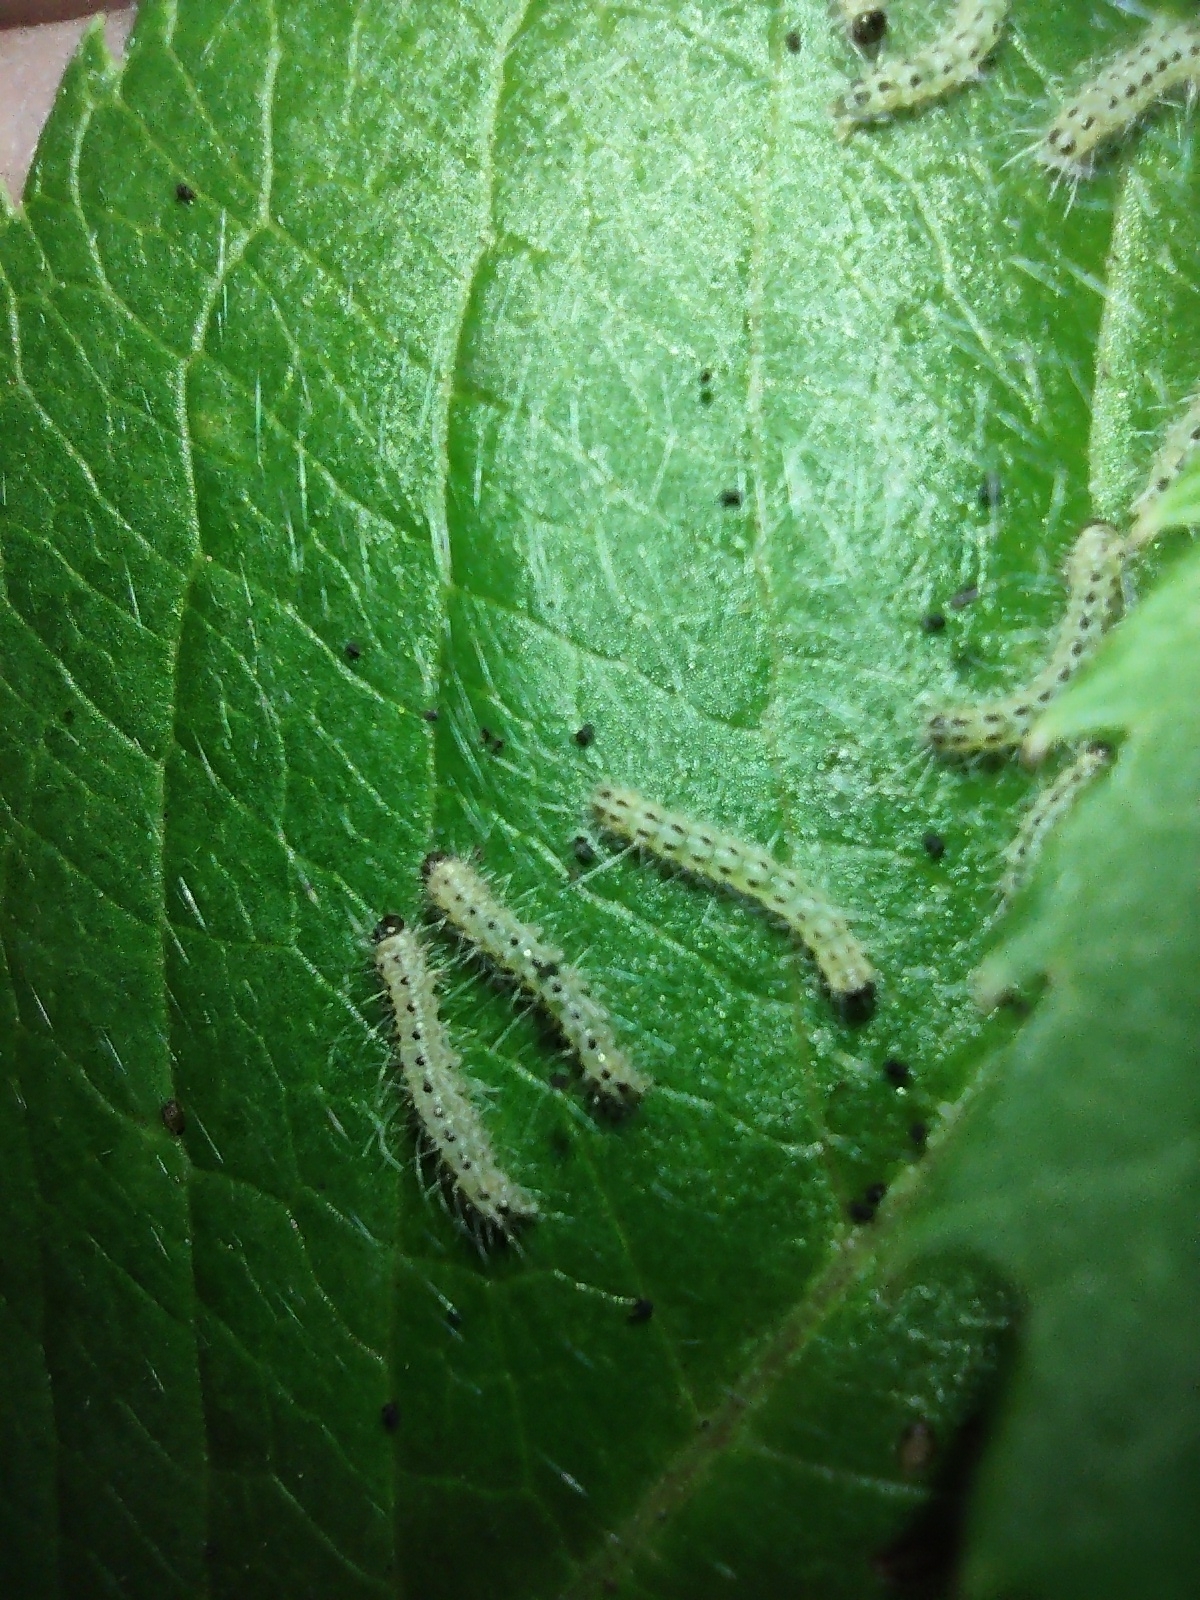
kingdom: Animalia
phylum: Arthropoda
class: Insecta
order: Lepidoptera
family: Erebidae
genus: Hyphantria
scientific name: Hyphantria cunea
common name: American white moth
